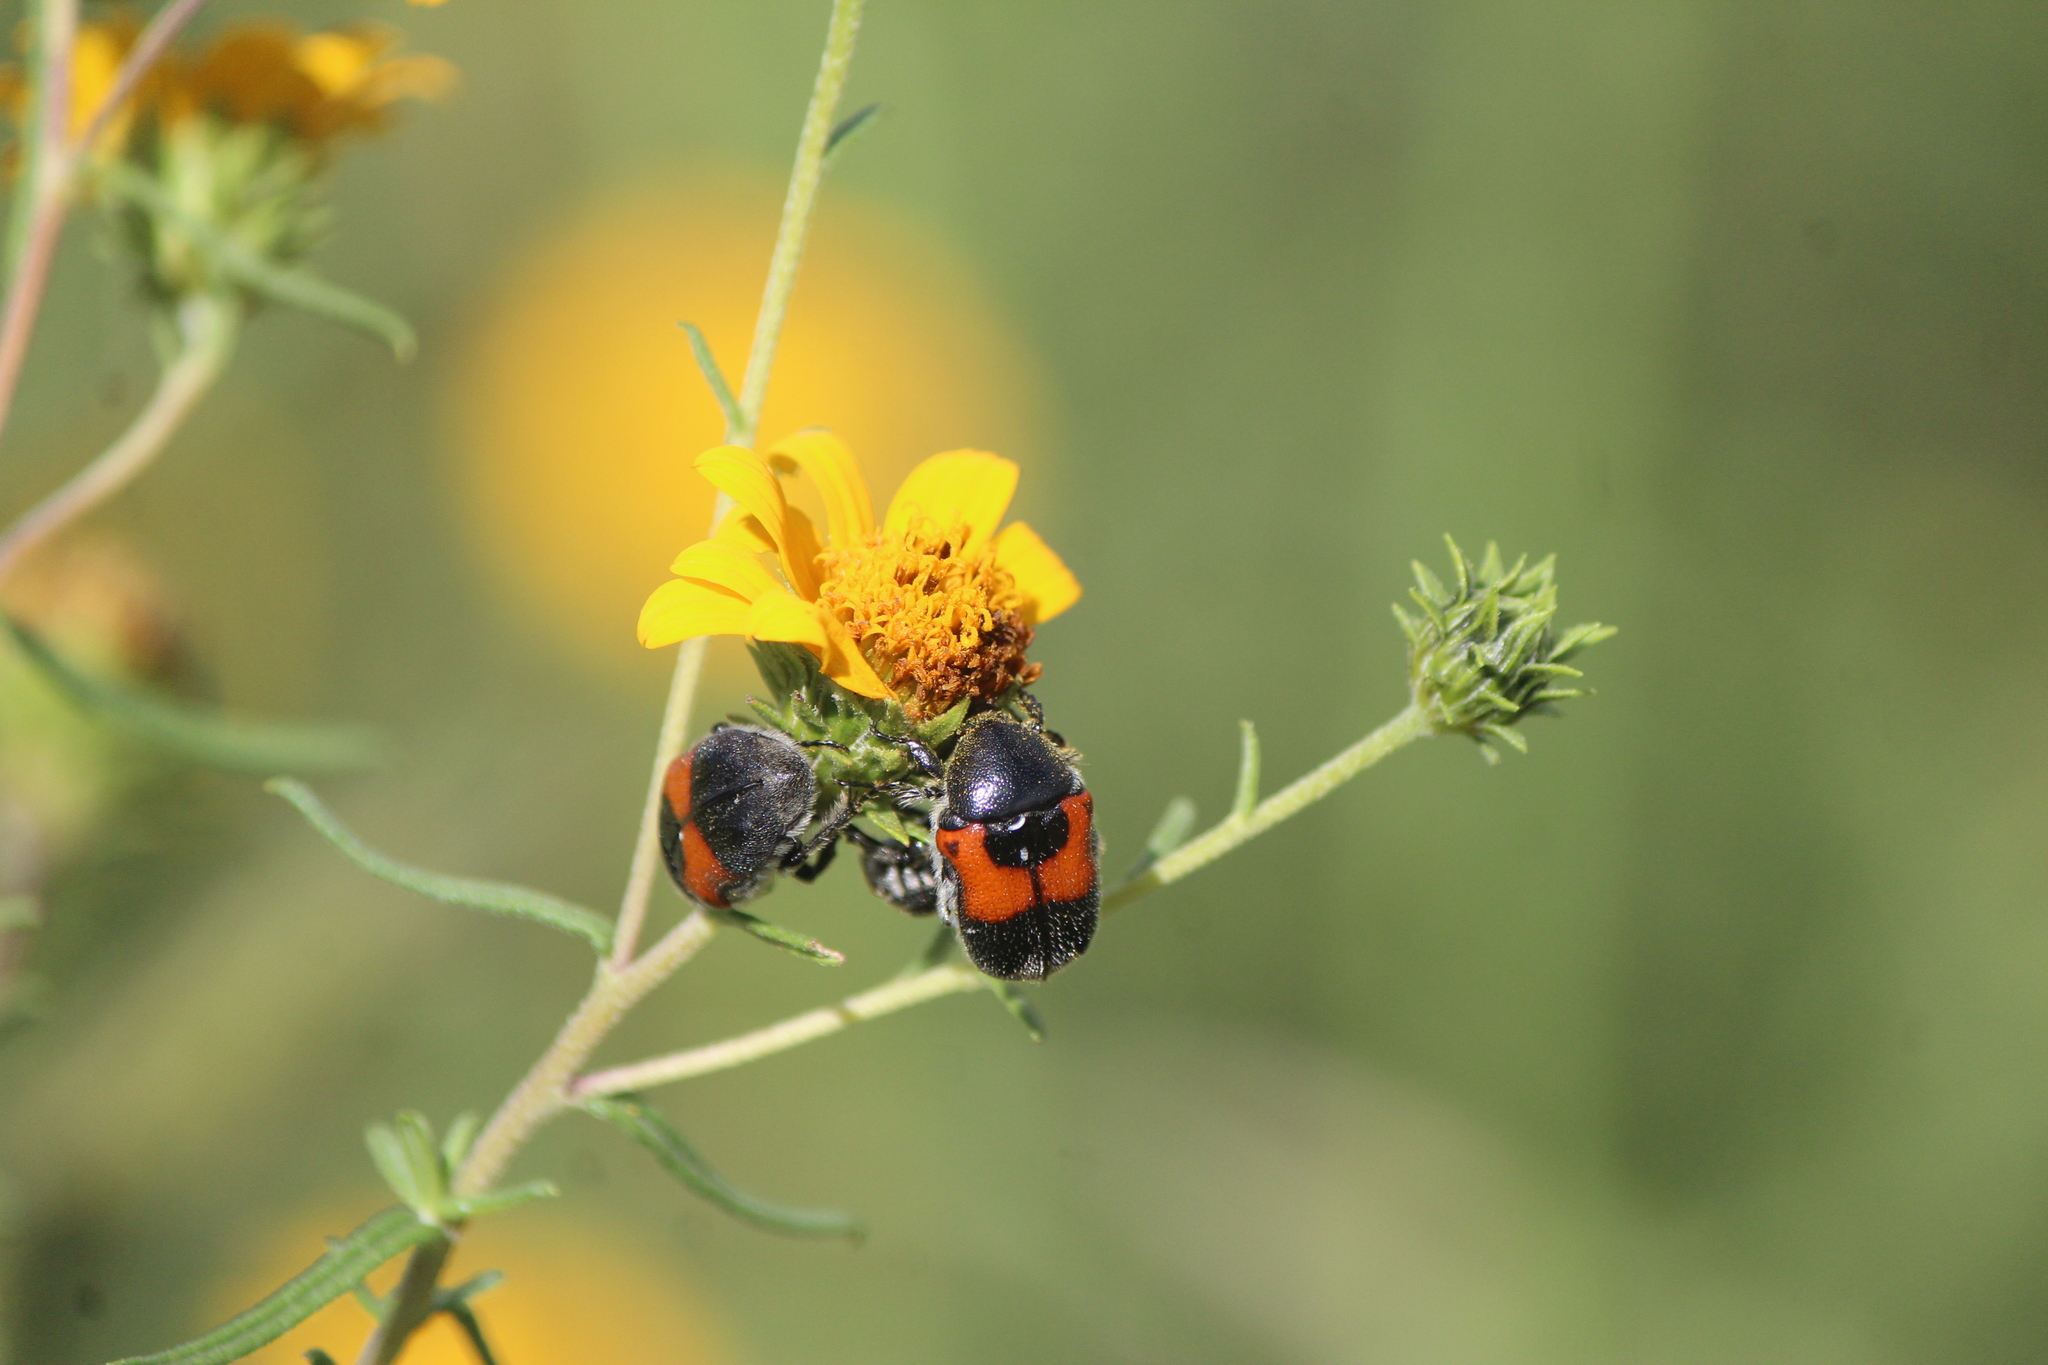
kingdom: Animalia
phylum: Arthropoda
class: Insecta
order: Coleoptera
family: Scarabaeidae
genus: Euphoria
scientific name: Euphoria dimidiata
